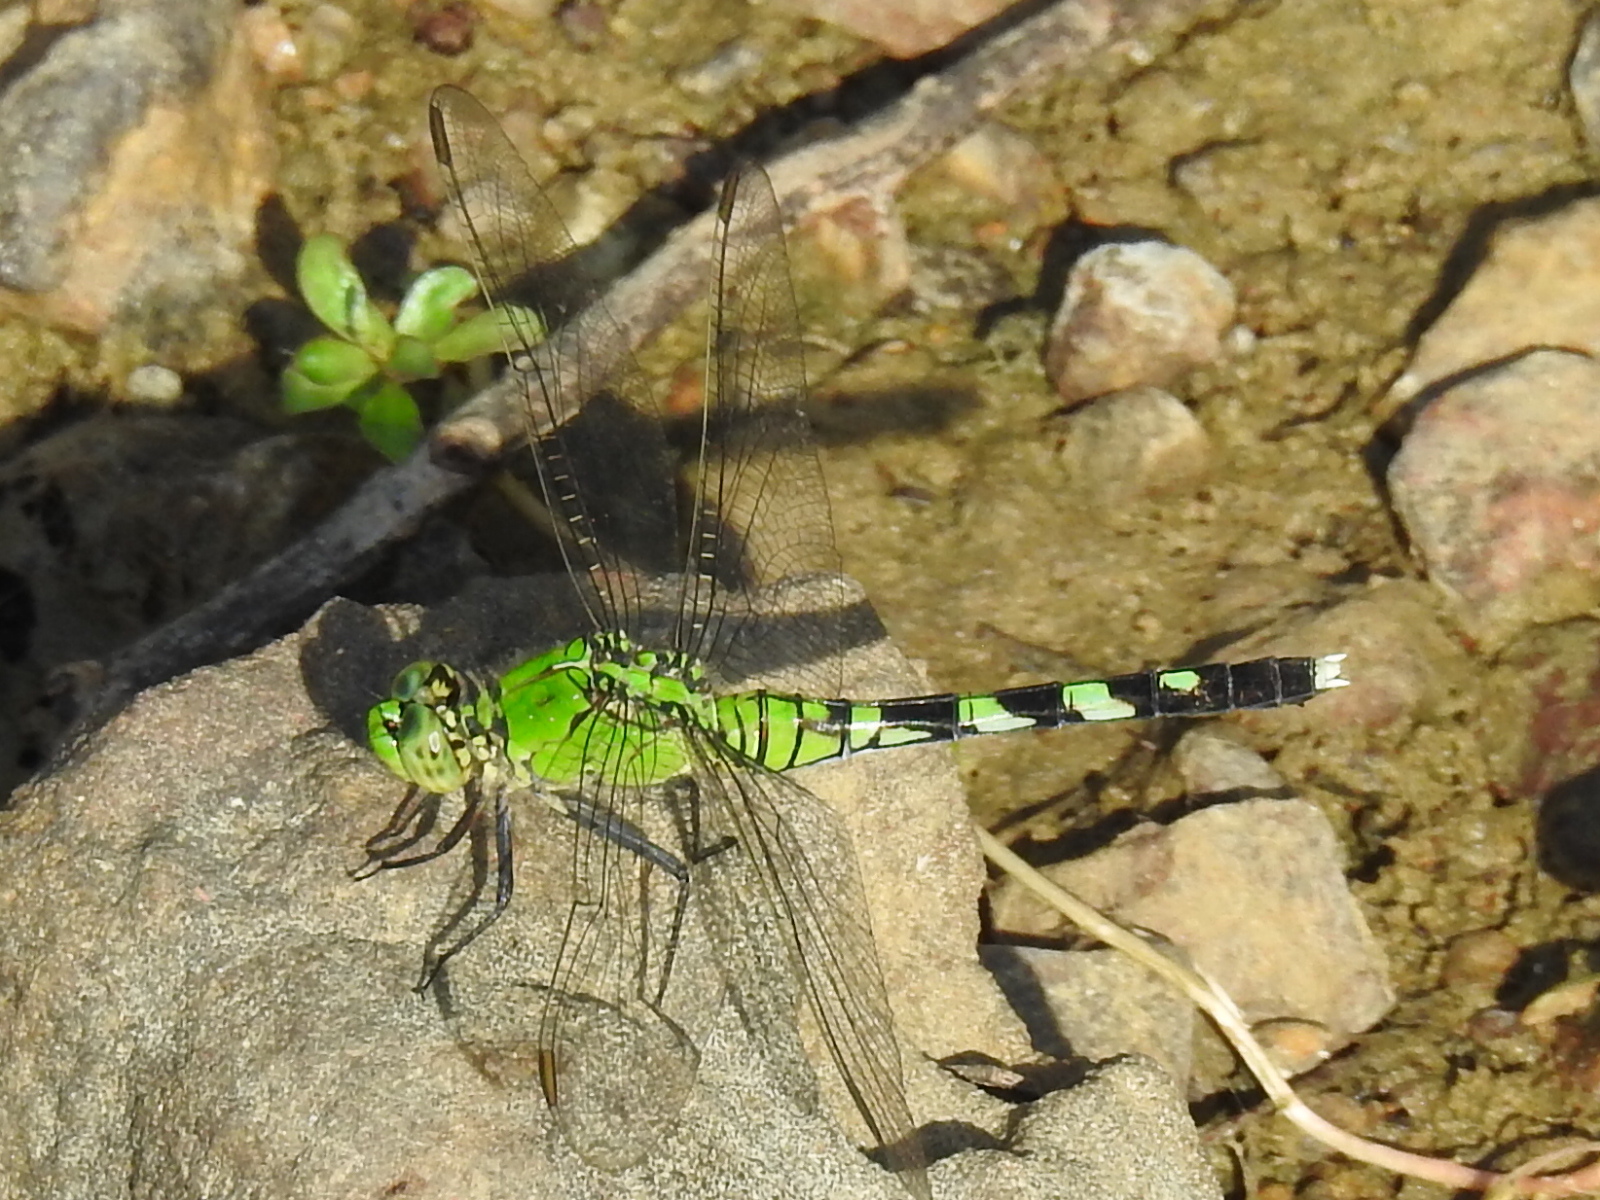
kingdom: Animalia
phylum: Arthropoda
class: Insecta
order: Odonata
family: Libellulidae
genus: Erythemis
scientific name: Erythemis simplicicollis
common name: Eastern pondhawk
